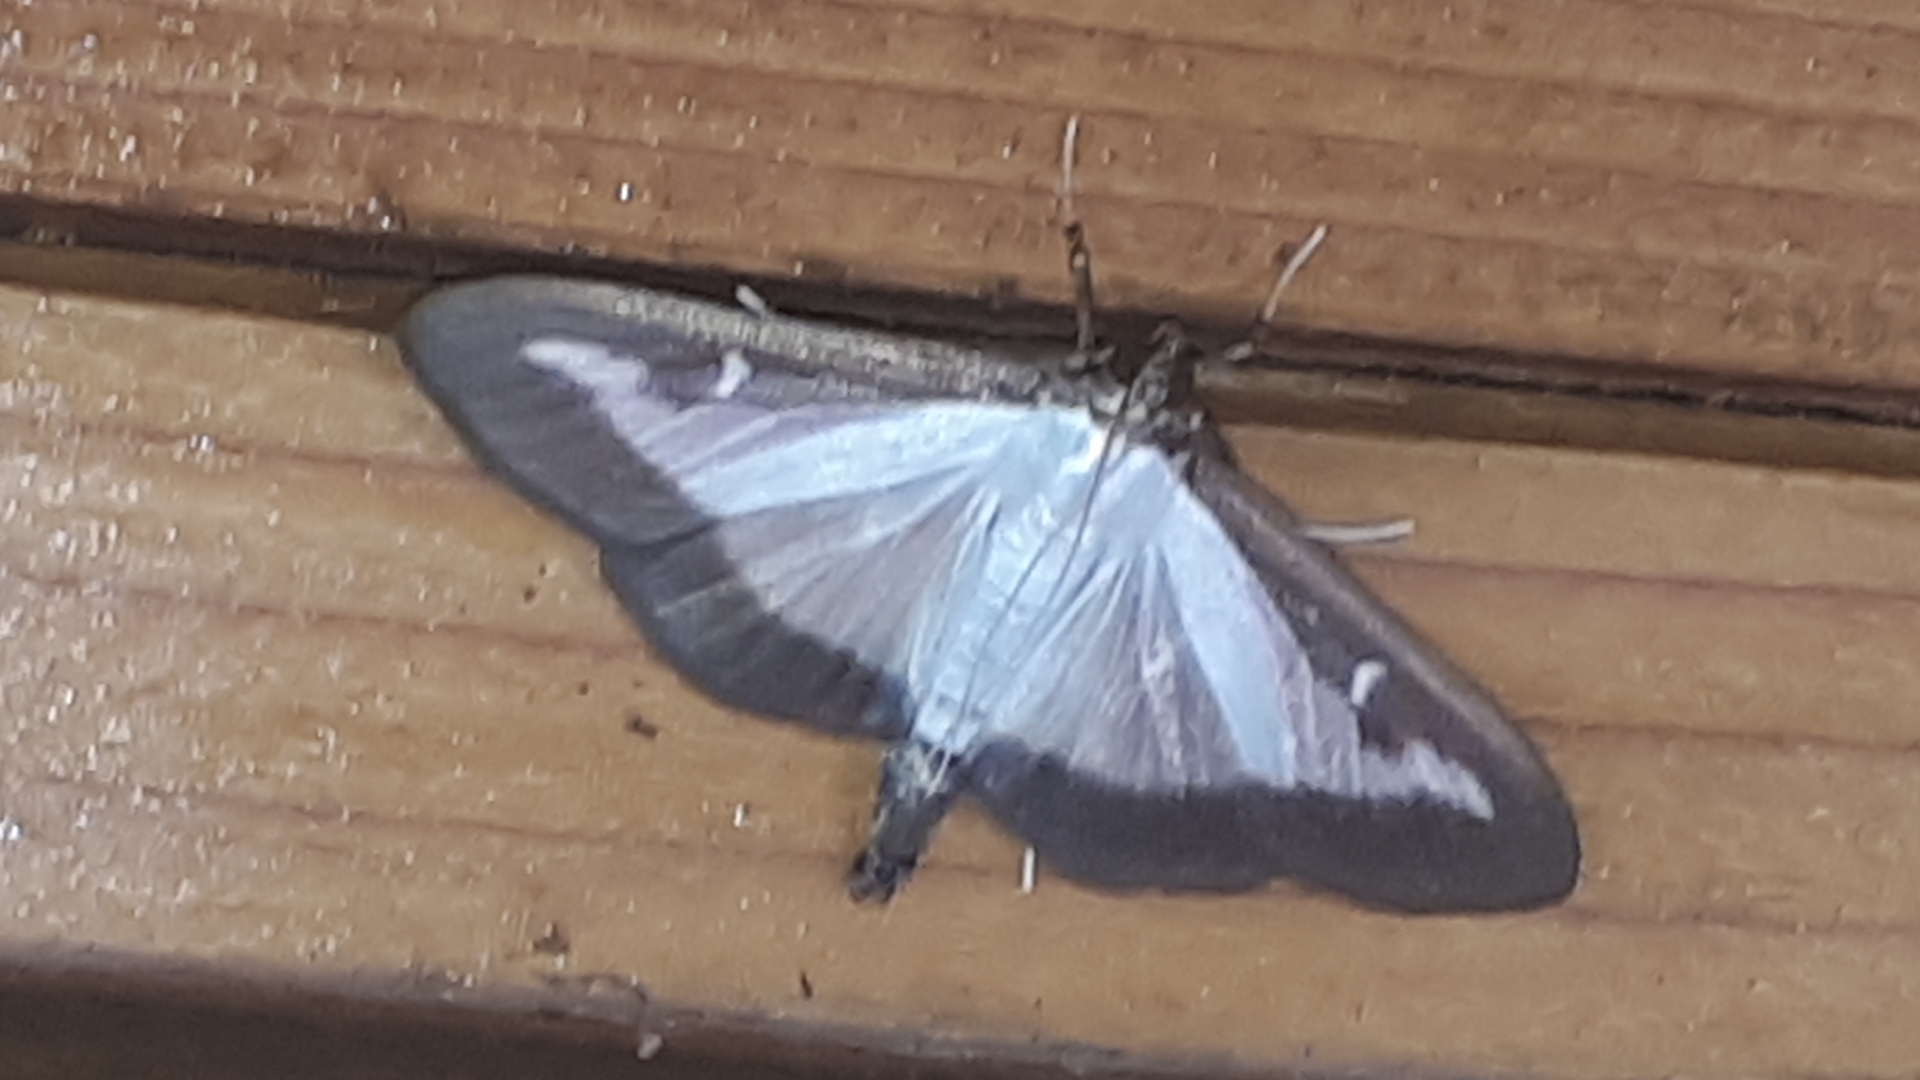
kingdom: Animalia
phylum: Arthropoda
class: Insecta
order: Lepidoptera
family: Crambidae
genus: Cydalima
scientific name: Cydalima perspectalis
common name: Box tree moth
